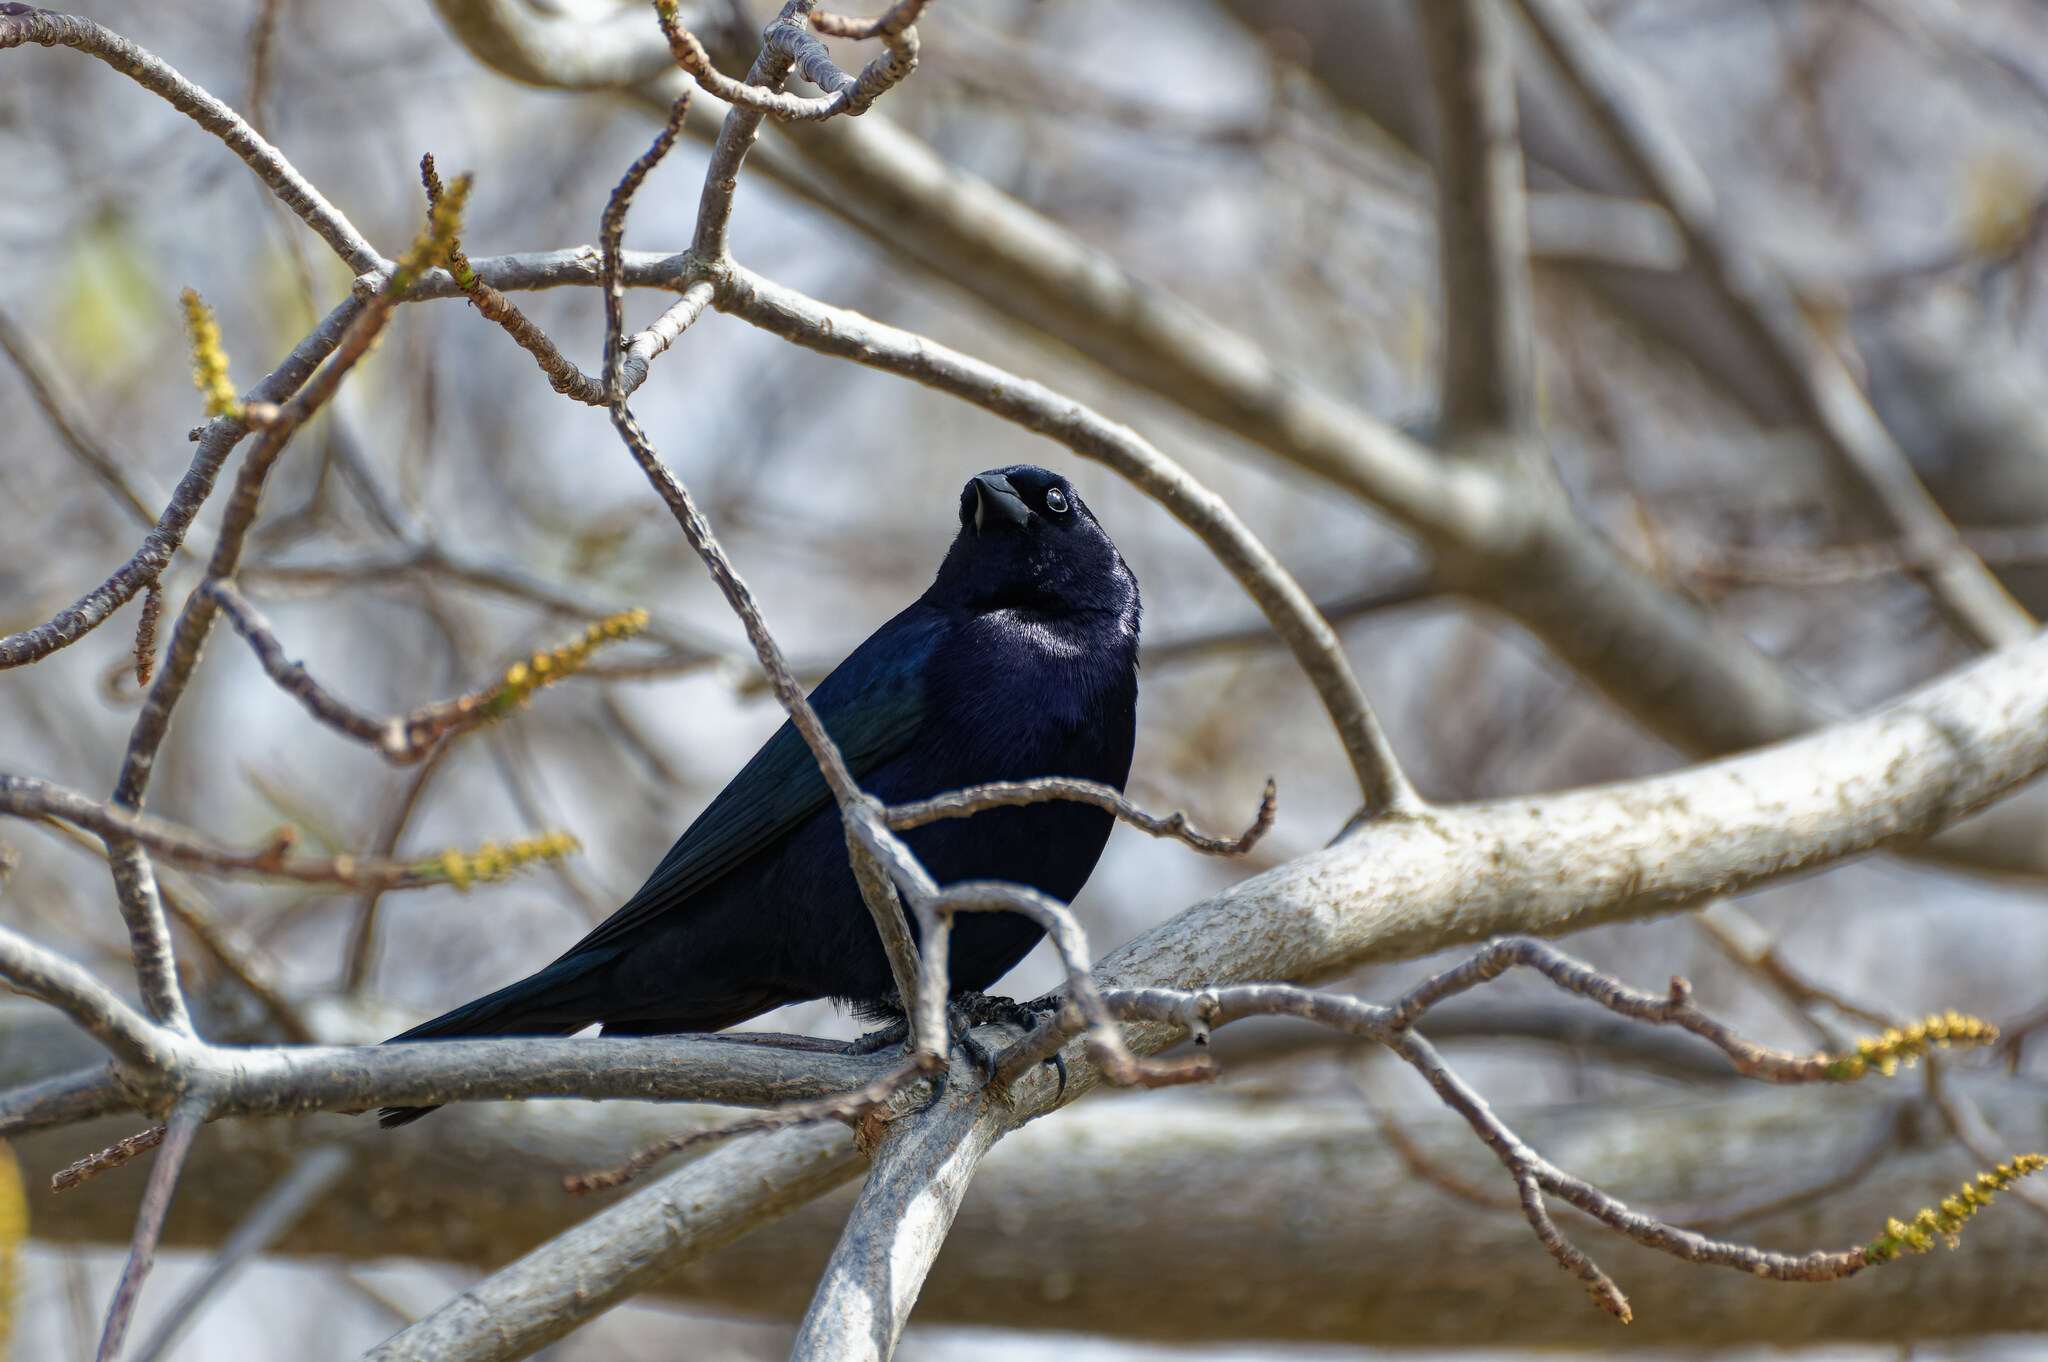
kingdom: Animalia
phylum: Chordata
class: Aves
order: Passeriformes
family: Icteridae
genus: Molothrus
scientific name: Molothrus bonariensis
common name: Shiny cowbird
